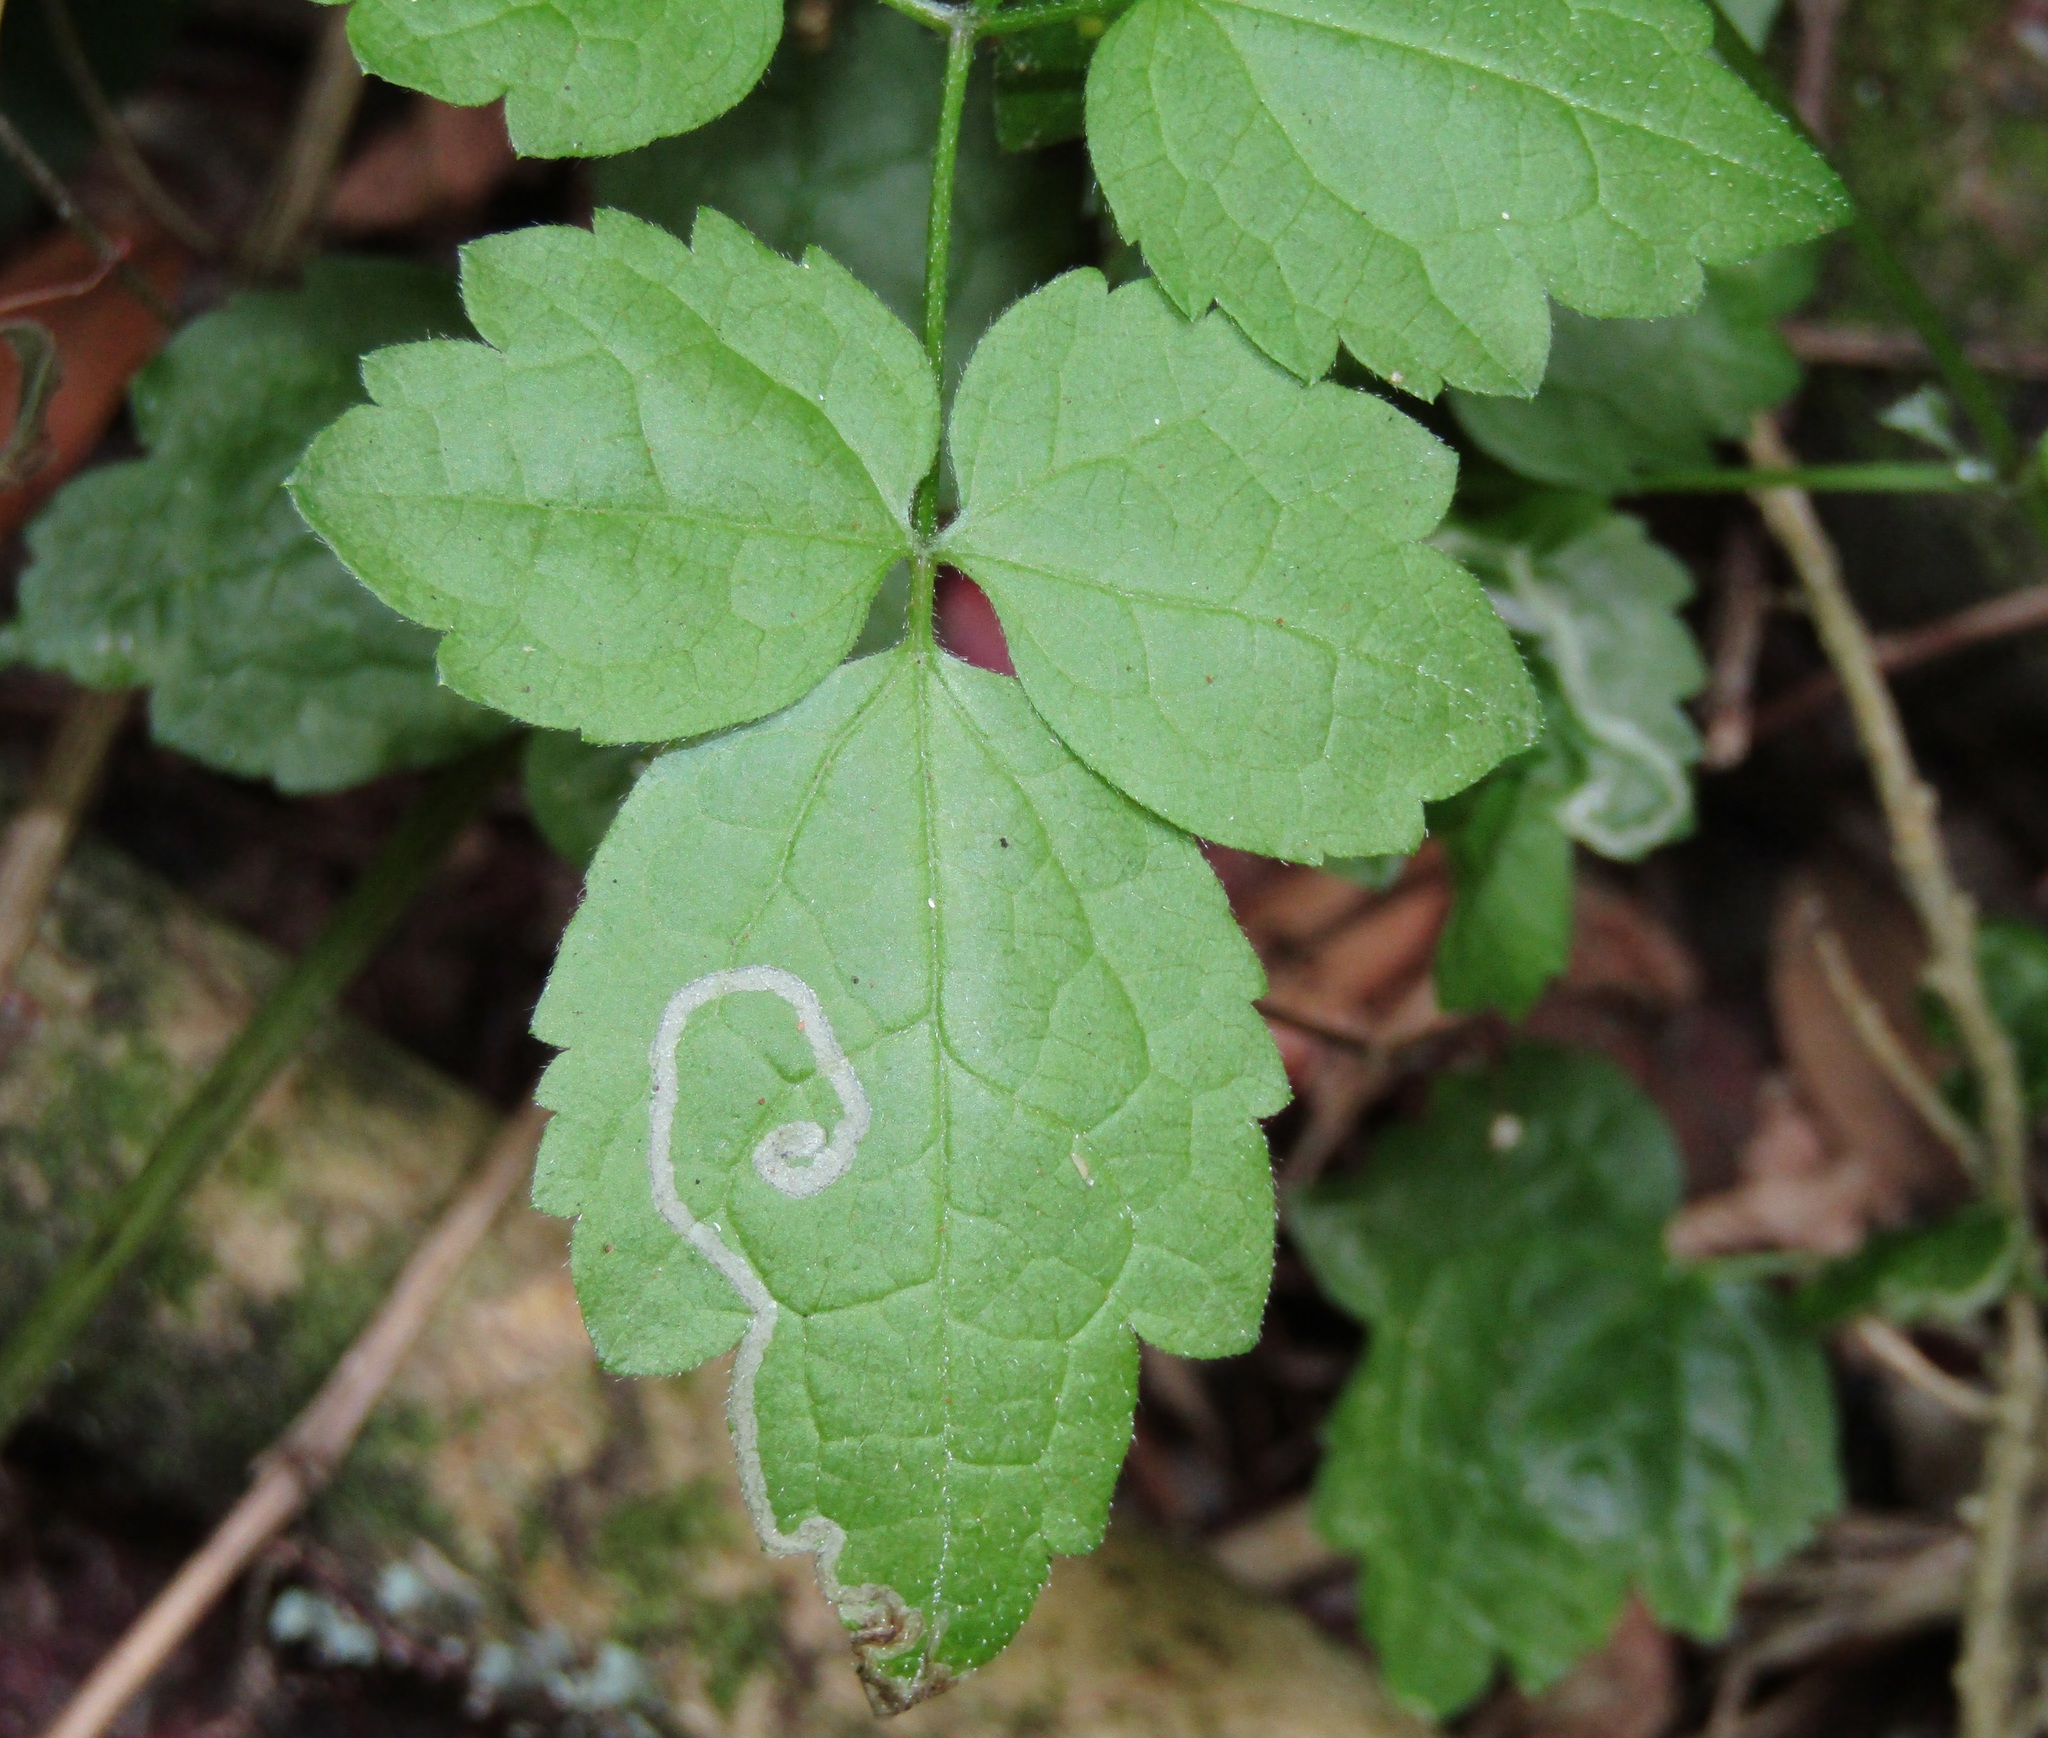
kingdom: Plantae
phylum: Tracheophyta
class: Magnoliopsida
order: Ranunculales
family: Ranunculaceae
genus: Clematis
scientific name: Clematis vitalba
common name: Evergreen clematis
